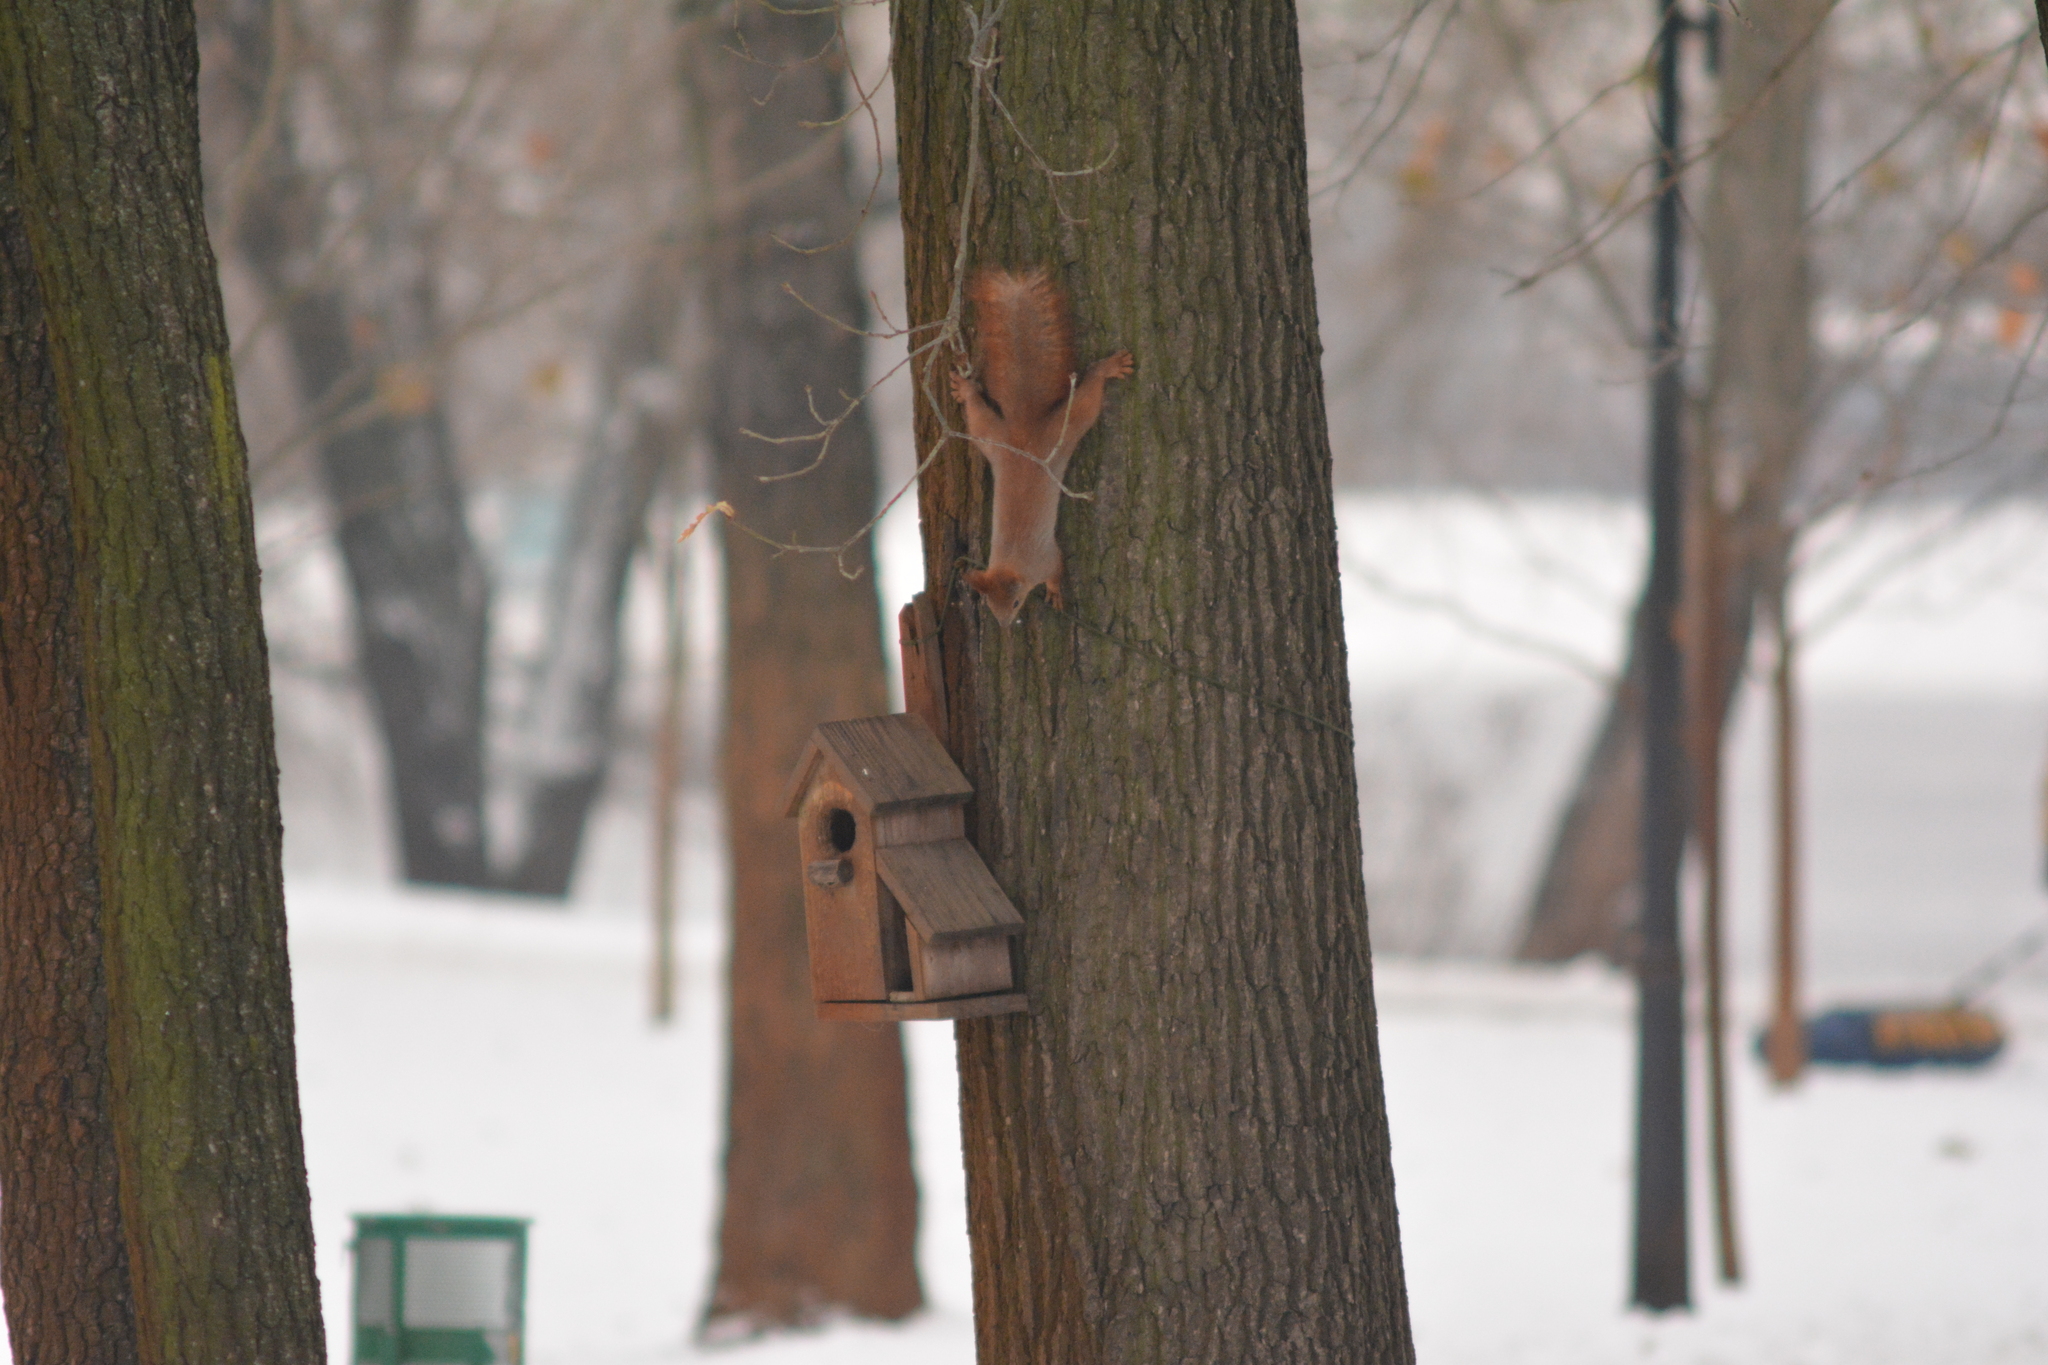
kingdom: Animalia
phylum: Chordata
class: Mammalia
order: Rodentia
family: Sciuridae
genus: Sciurus
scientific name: Sciurus vulgaris
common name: Eurasian red squirrel
